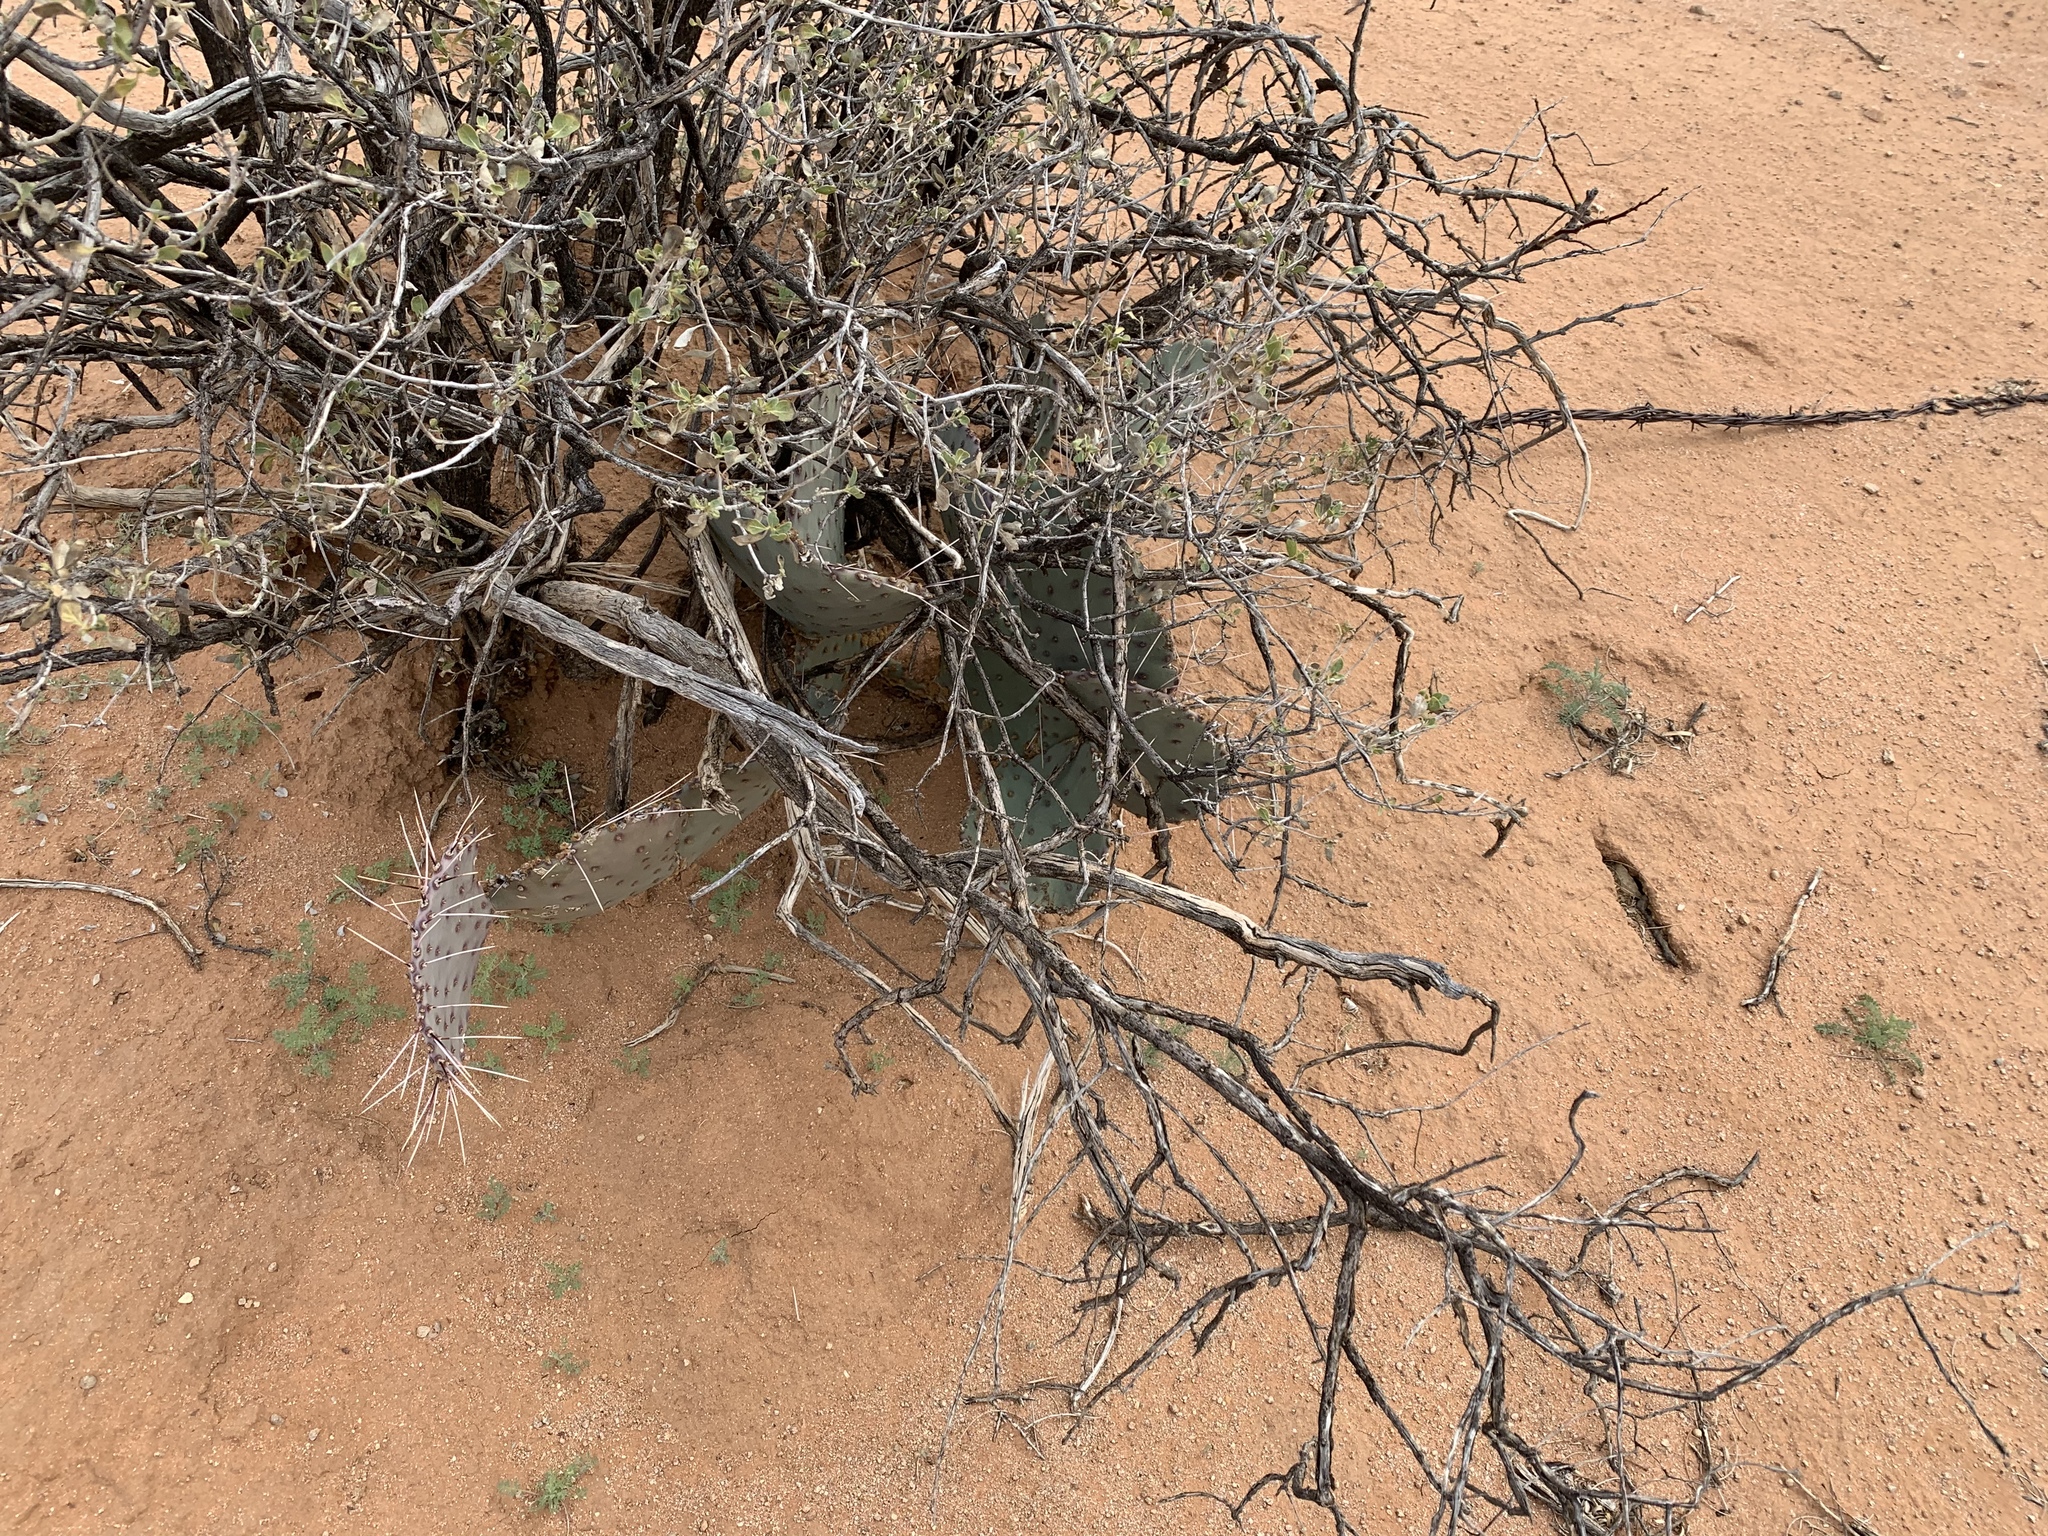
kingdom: Plantae
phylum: Tracheophyta
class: Magnoliopsida
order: Caryophyllales
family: Cactaceae
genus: Opuntia
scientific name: Opuntia macrocentra
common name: Purple prickly-pear
